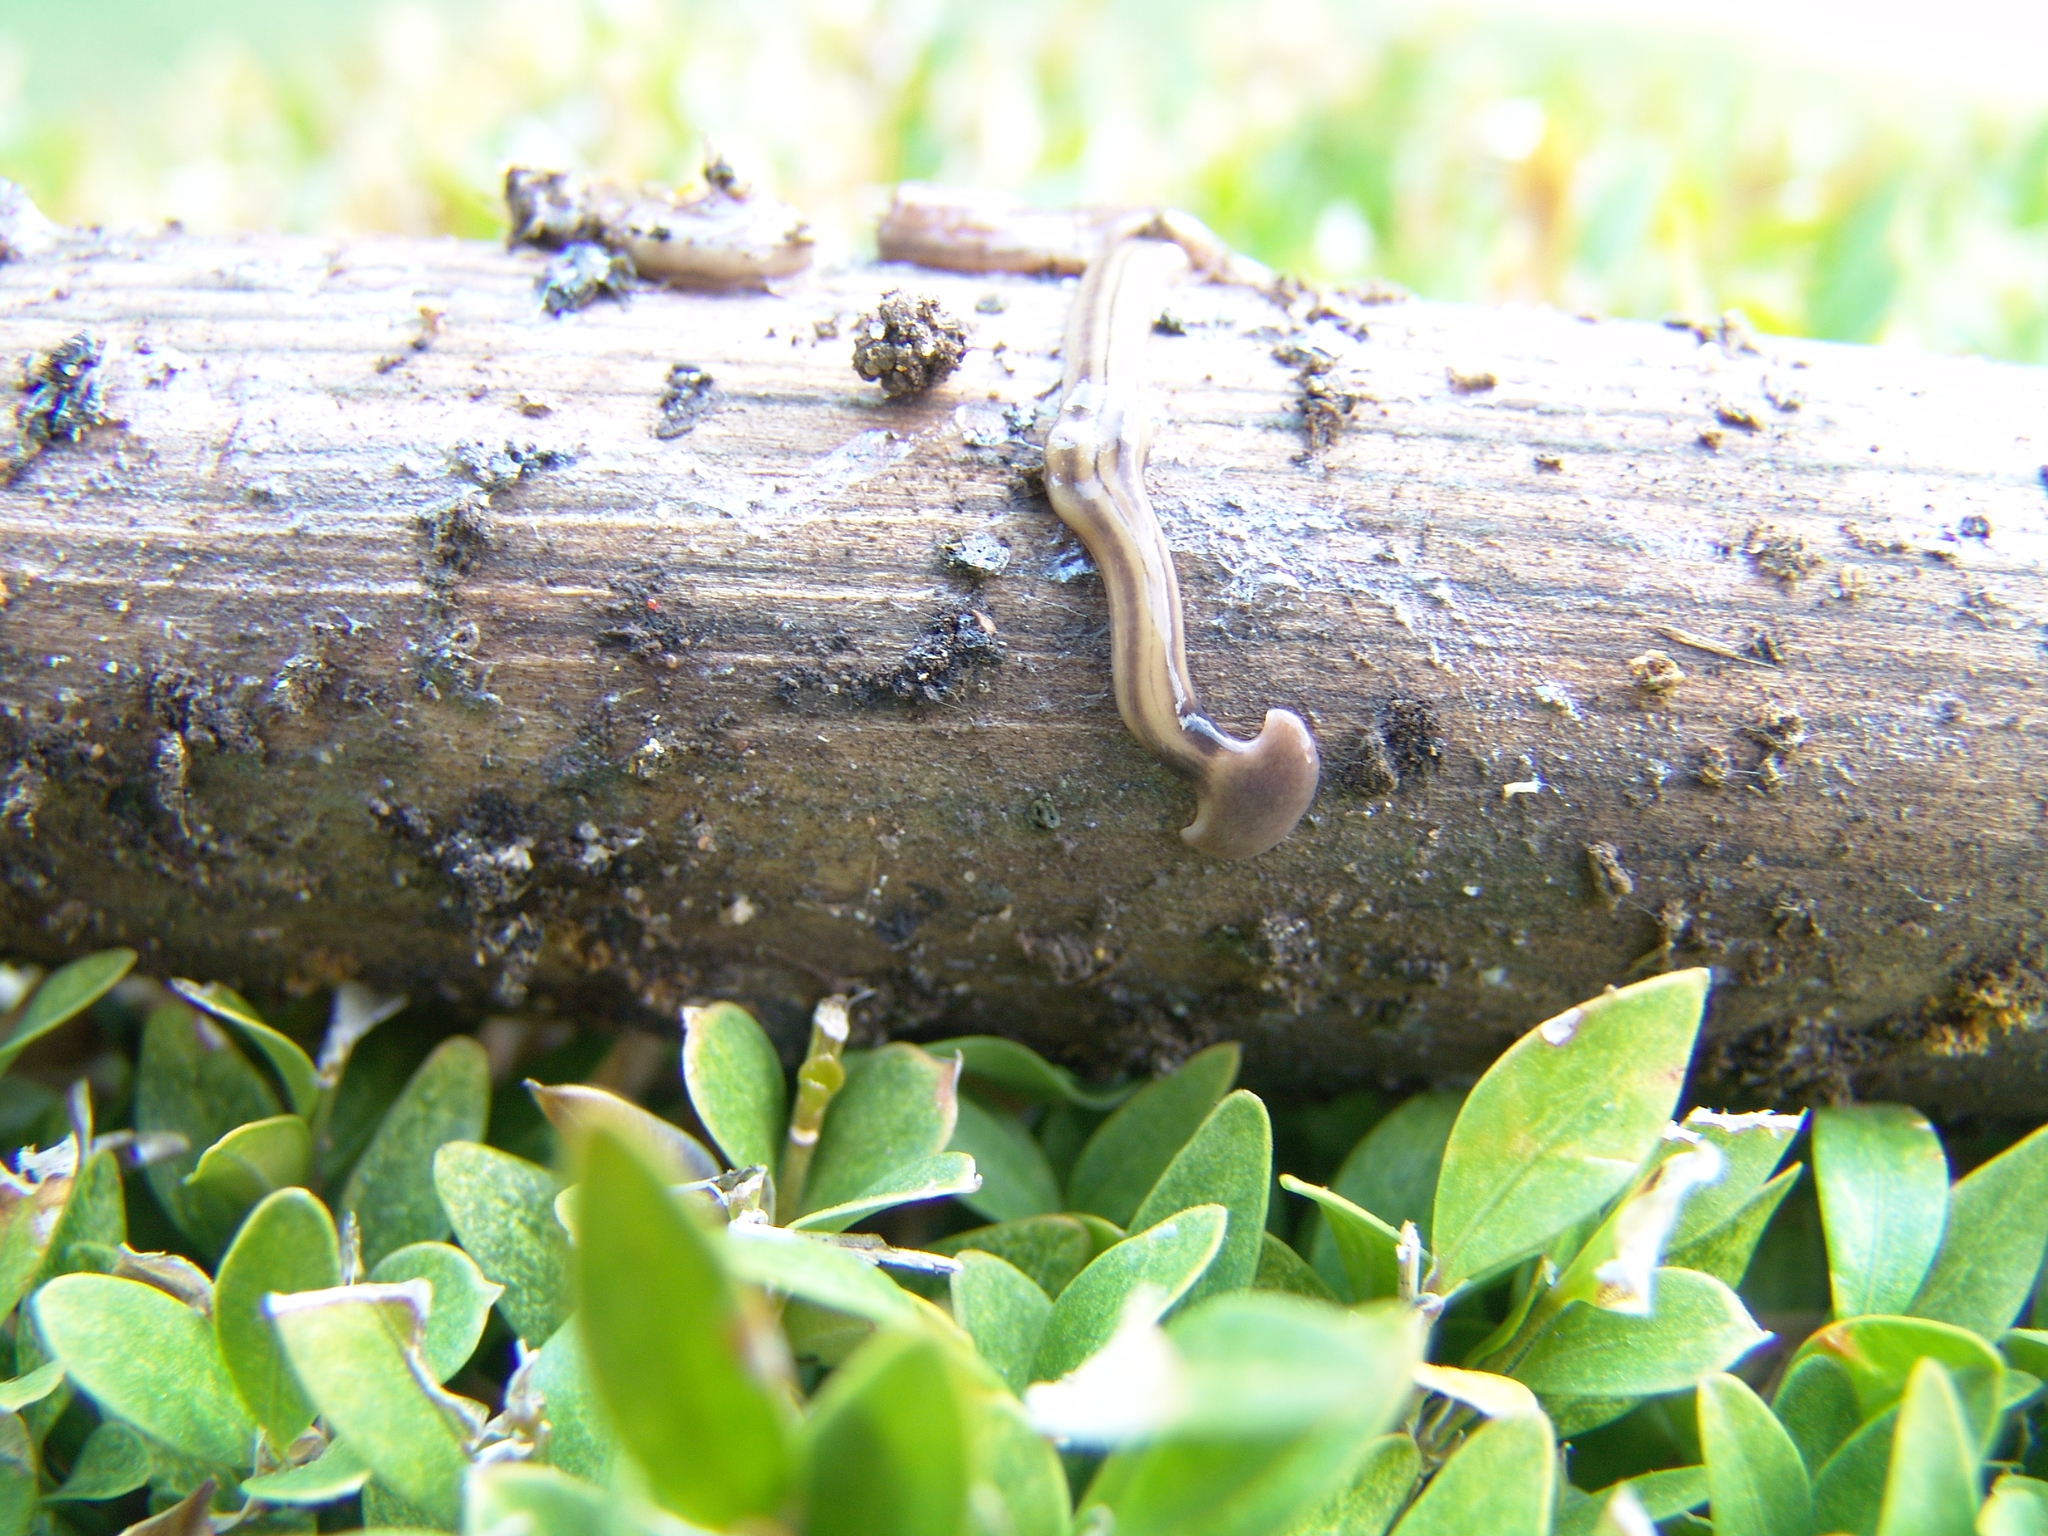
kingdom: Animalia
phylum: Platyhelminthes
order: Tricladida
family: Geoplanidae
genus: Bipalium
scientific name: Bipalium kewense
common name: Hammerhead flatworm
